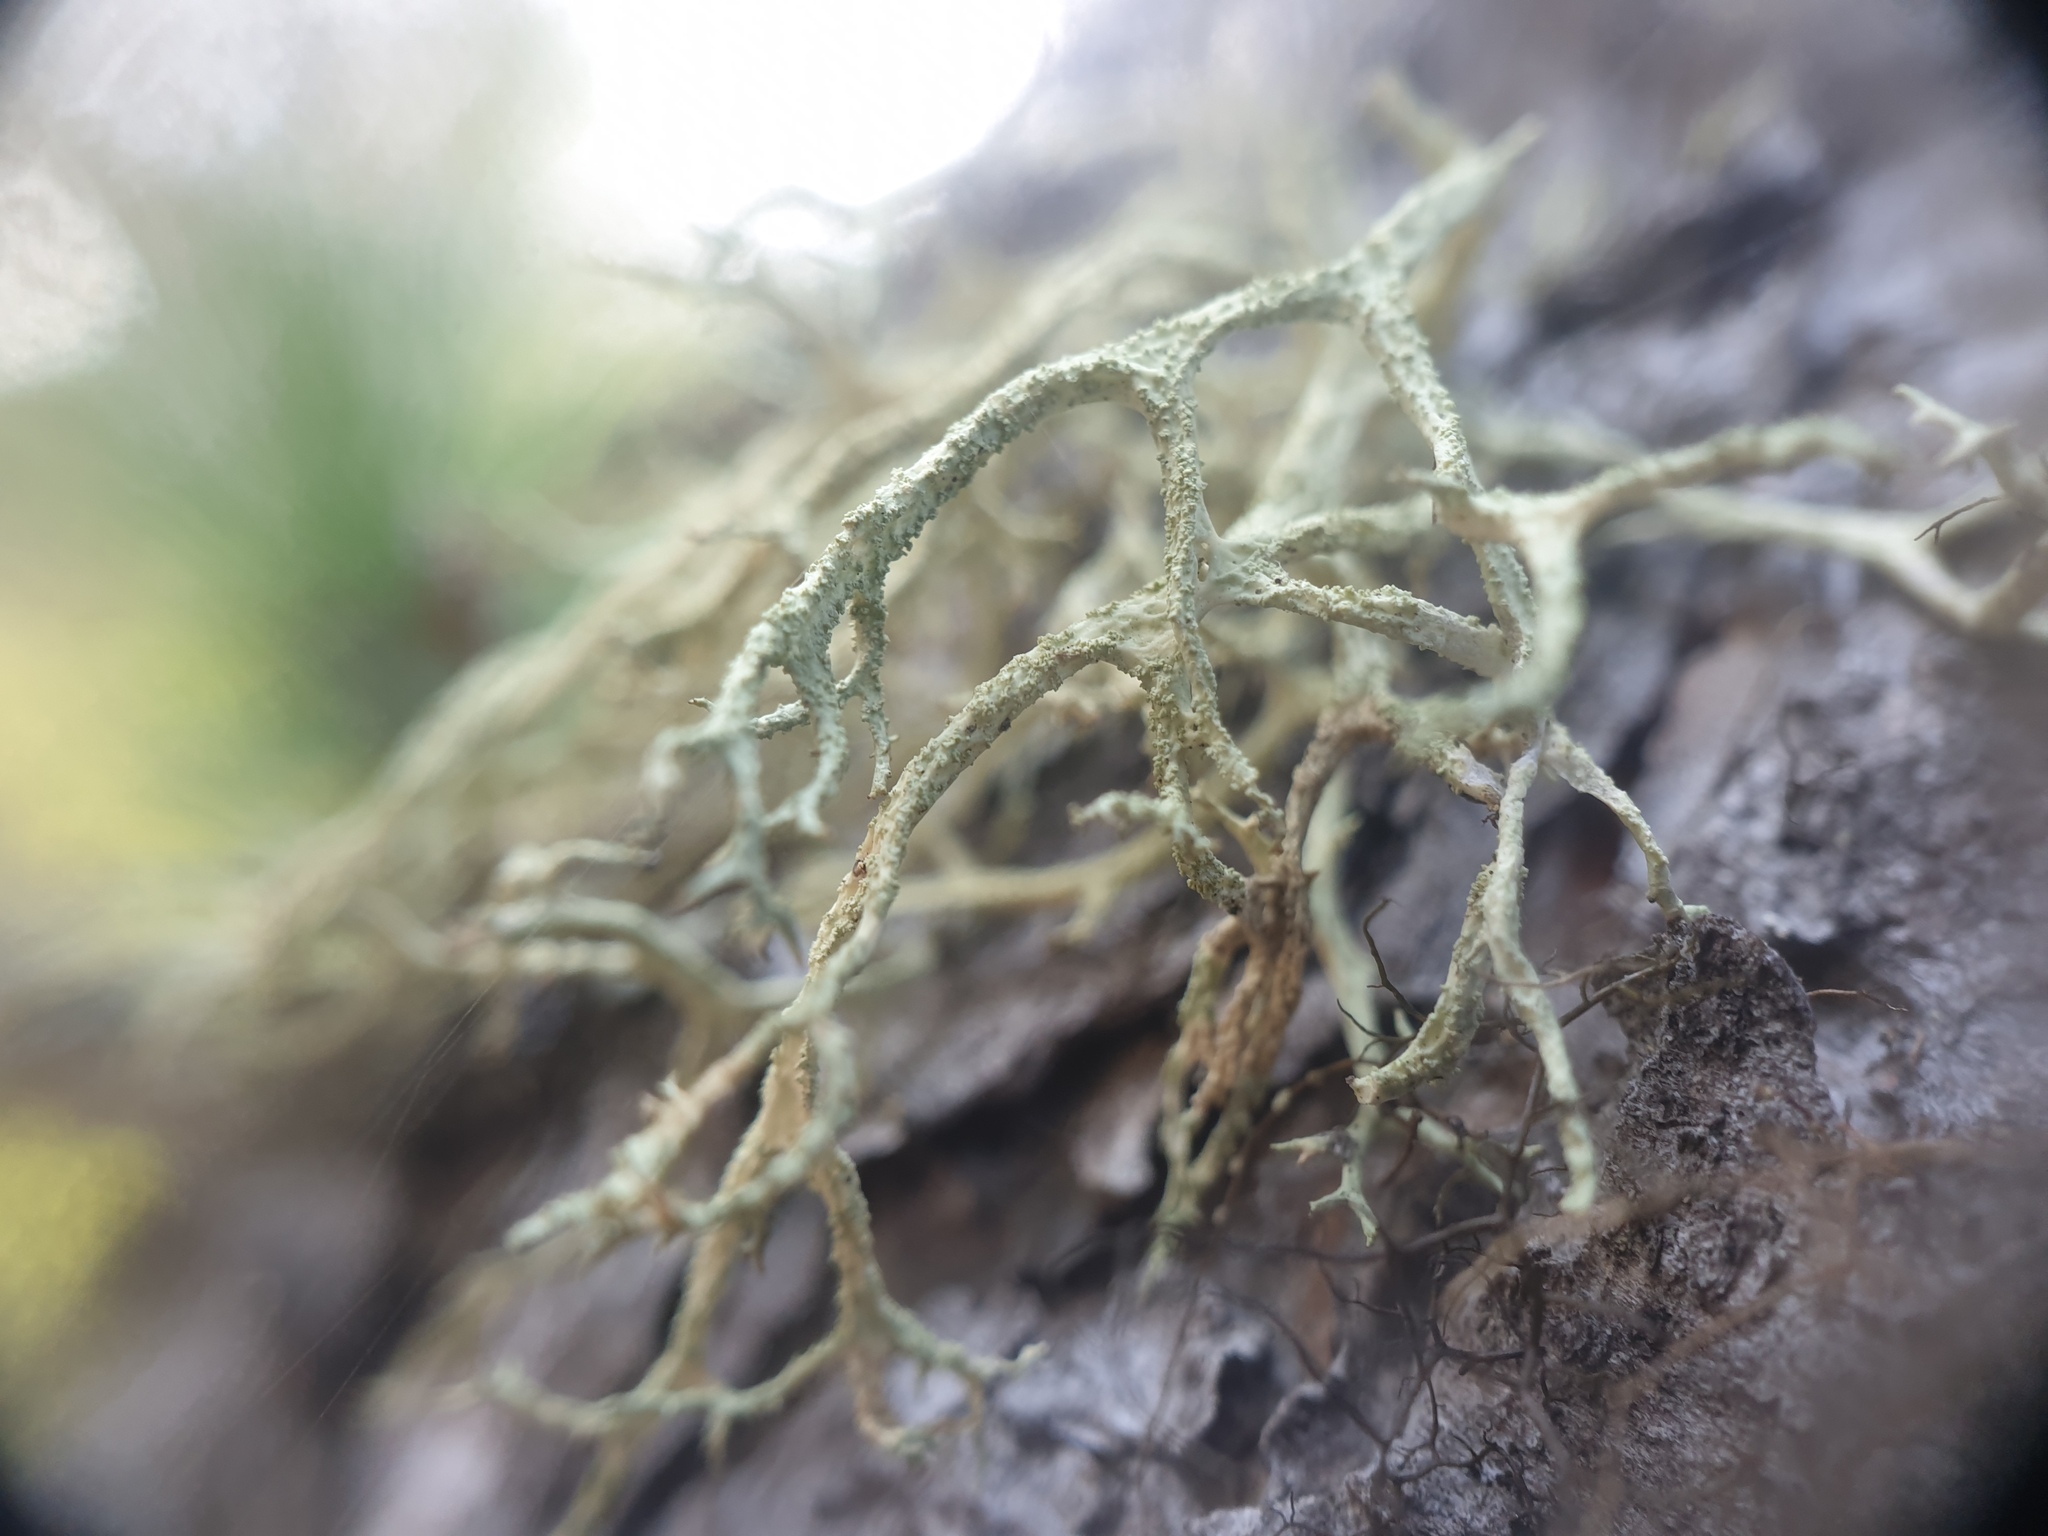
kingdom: Fungi
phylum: Ascomycota
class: Lecanoromycetes
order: Lecanorales
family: Parmeliaceae
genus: Evernia
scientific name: Evernia mesomorpha
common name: Boreal oak moss lichen
